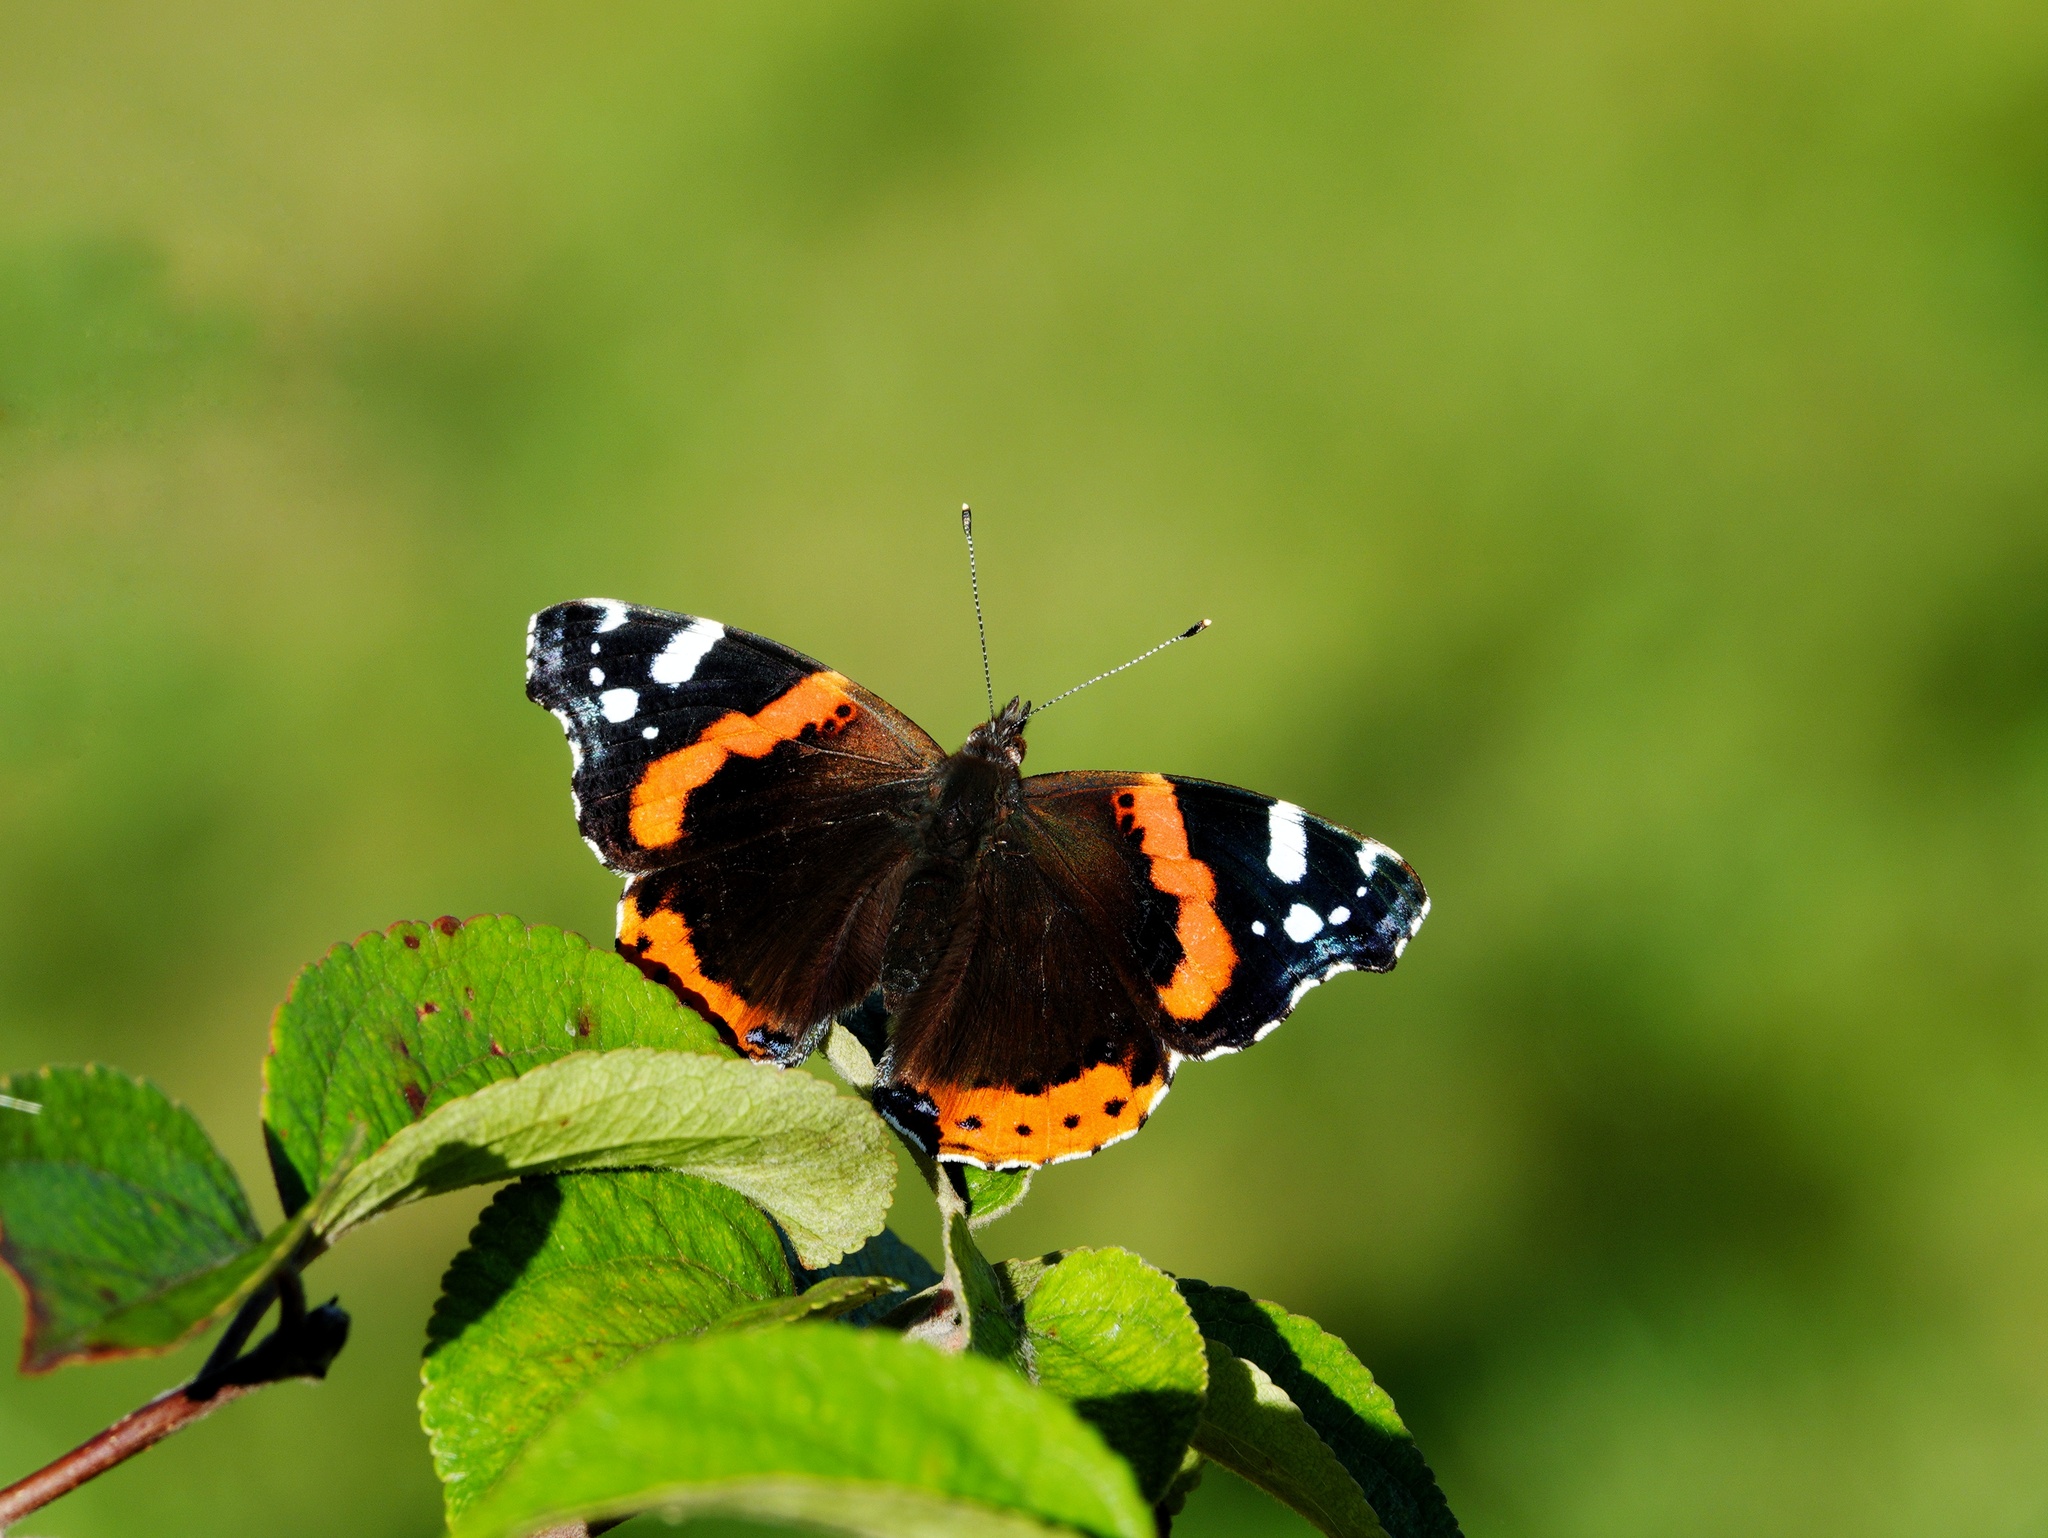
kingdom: Animalia
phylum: Arthropoda
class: Insecta
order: Lepidoptera
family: Nymphalidae
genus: Vanessa
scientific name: Vanessa atalanta
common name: Red admiral
